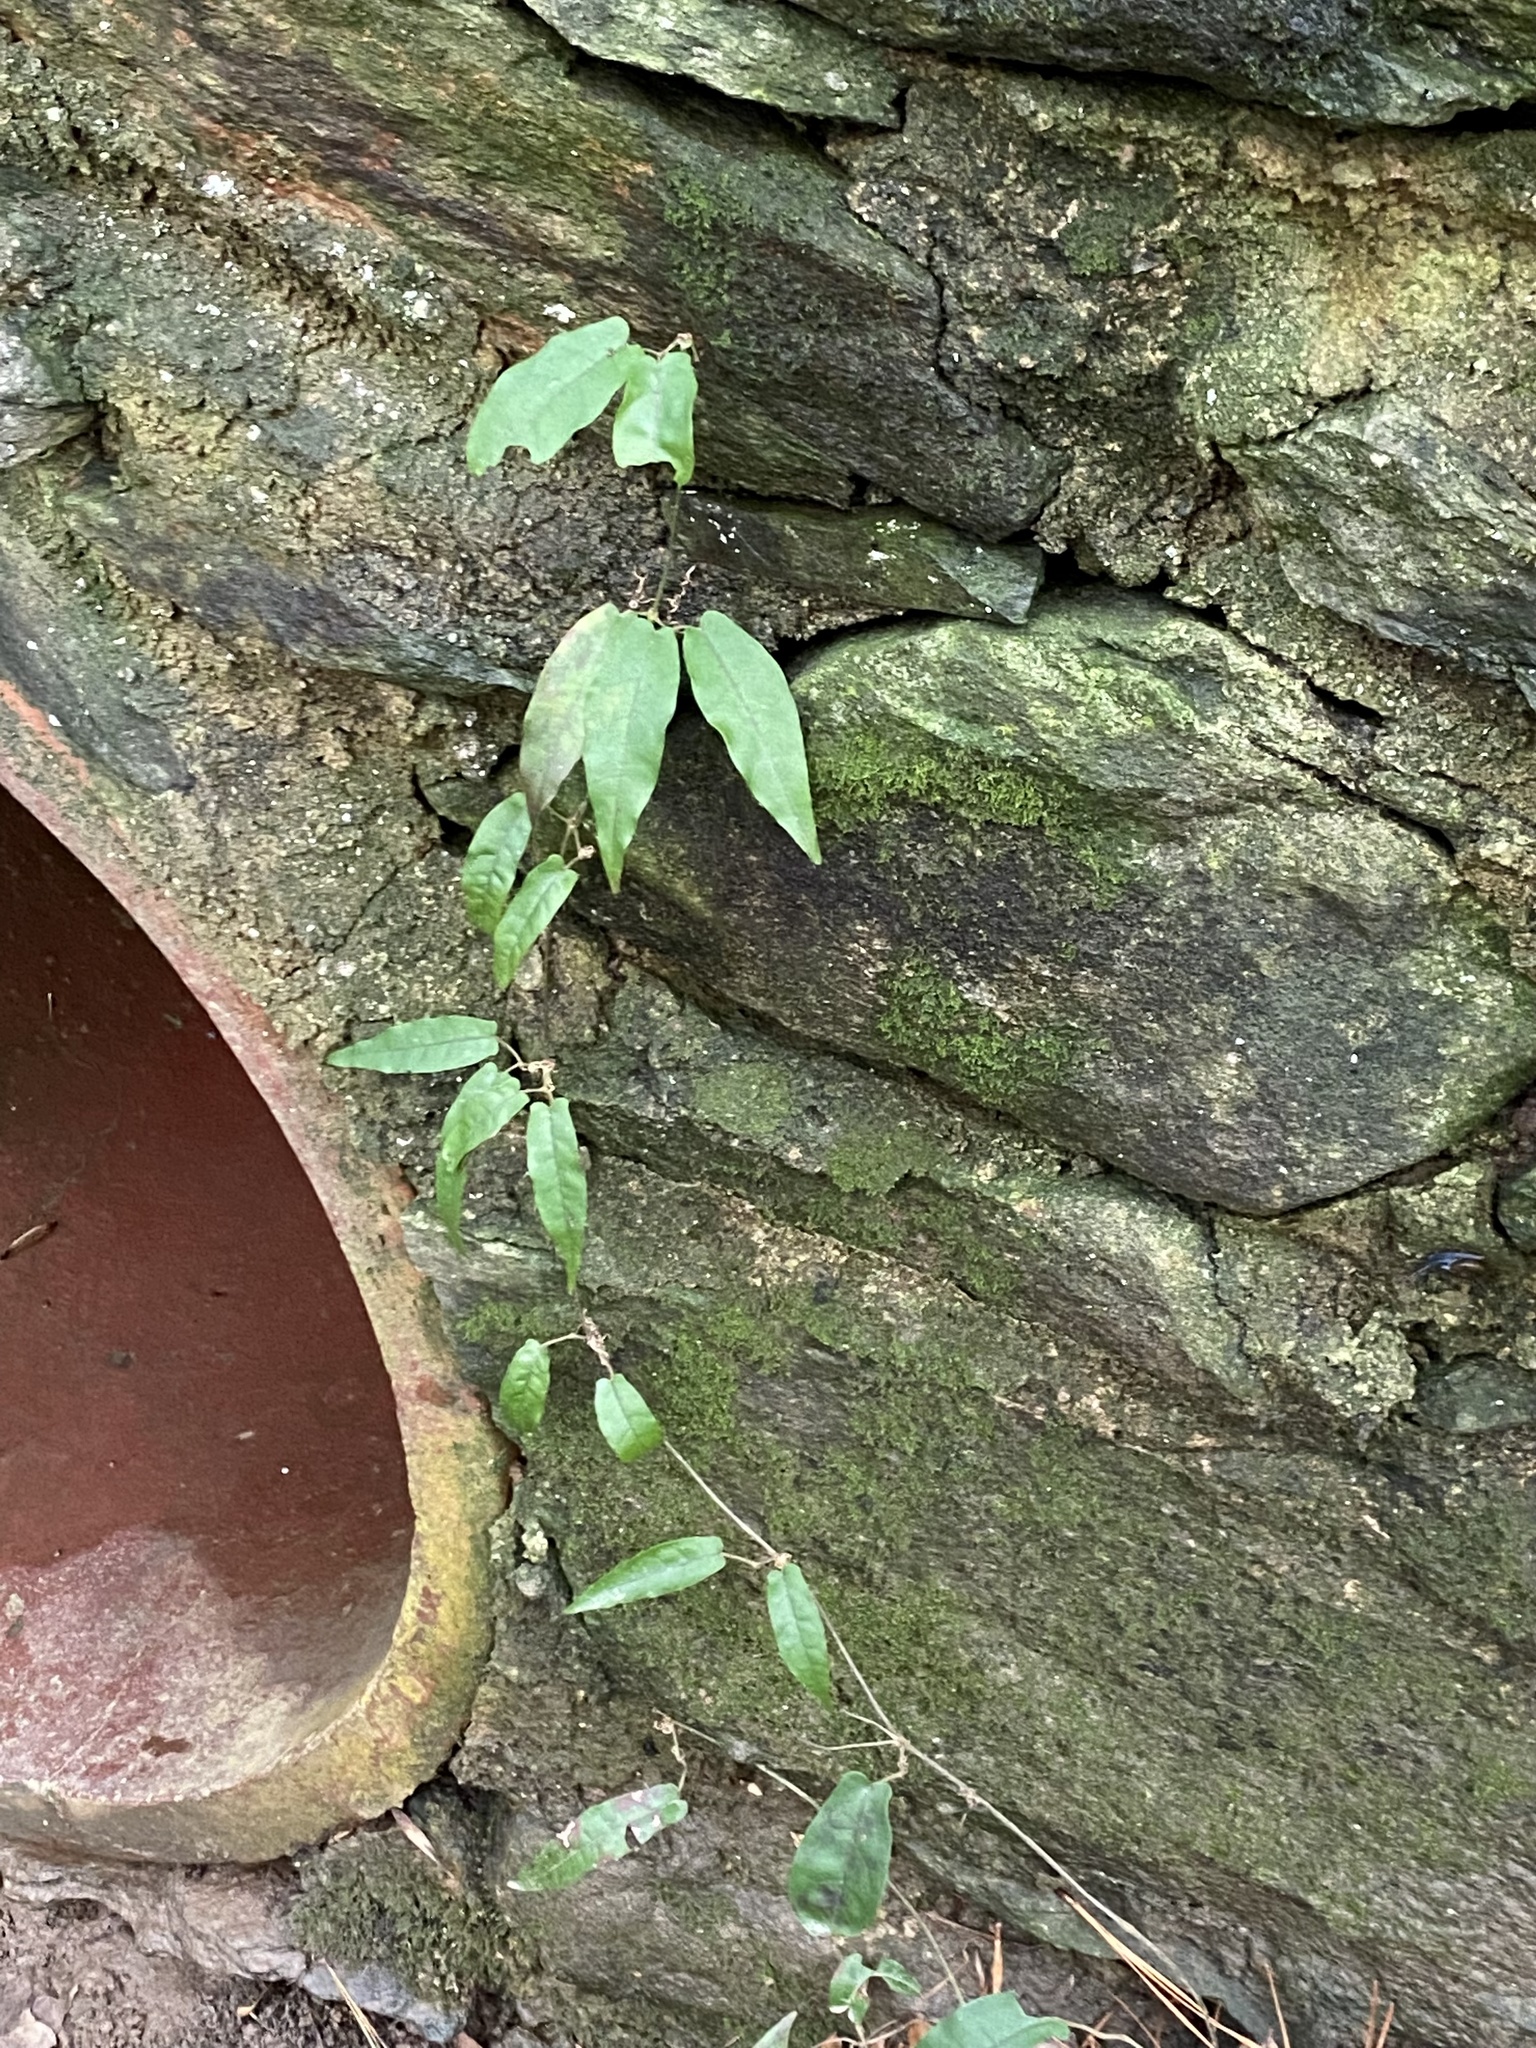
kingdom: Plantae
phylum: Tracheophyta
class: Magnoliopsida
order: Lamiales
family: Bignoniaceae
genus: Bignonia
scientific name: Bignonia capreolata
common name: Crossvine
